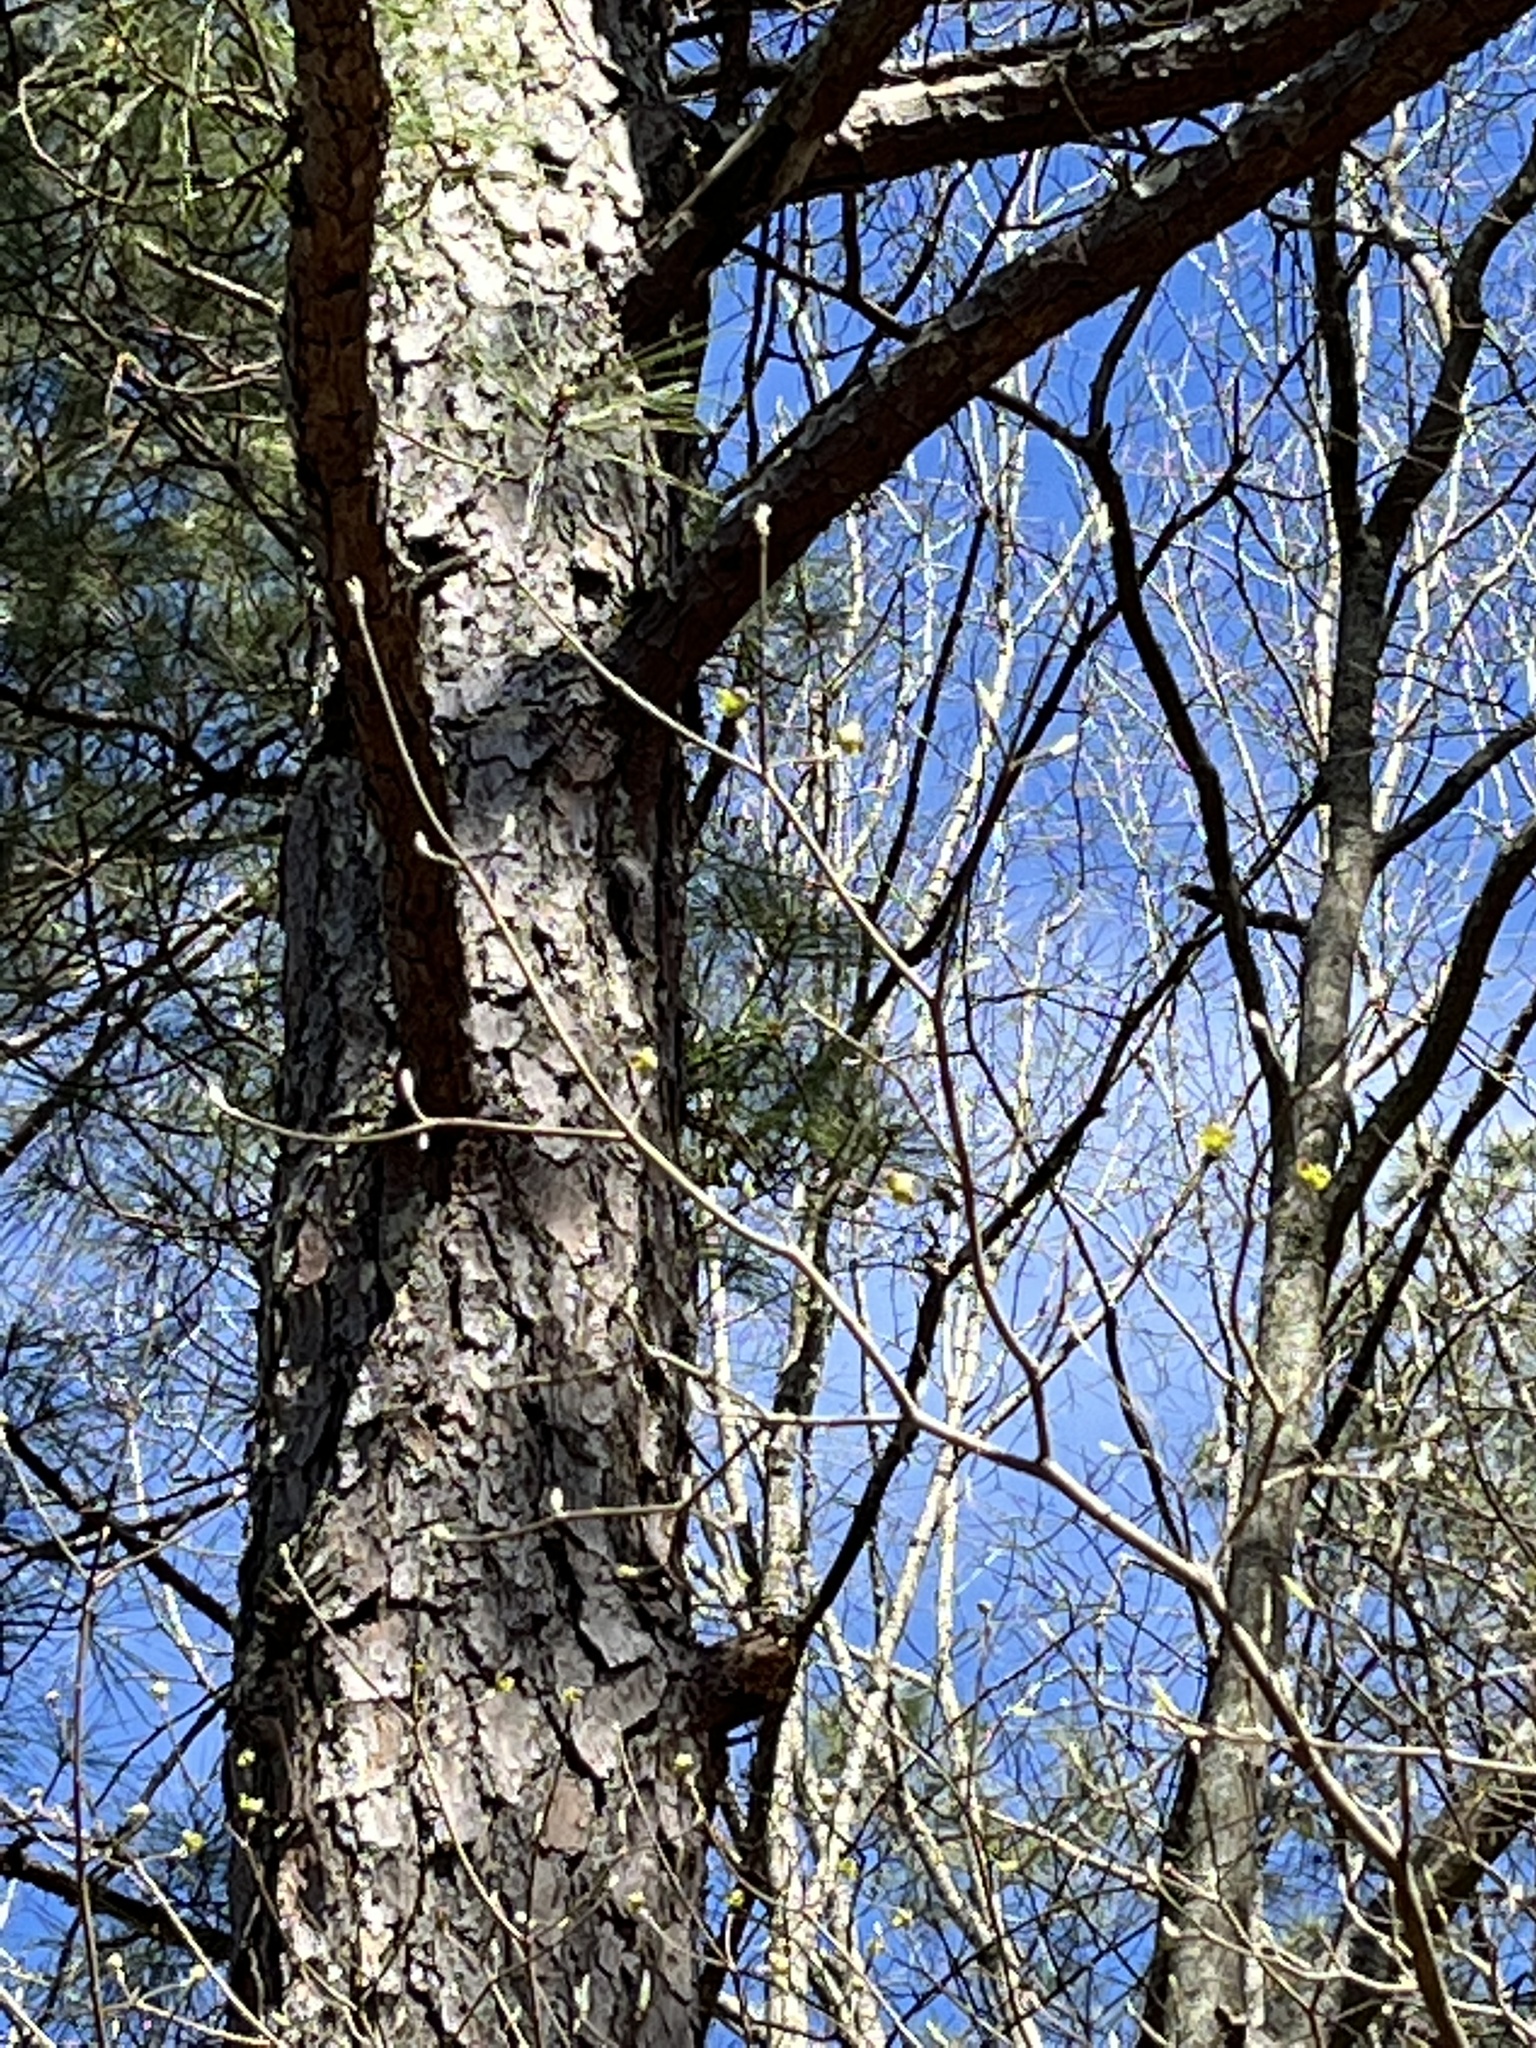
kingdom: Animalia
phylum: Chordata
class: Aves
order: Passeriformes
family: Sittidae
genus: Sitta
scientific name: Sitta pusilla
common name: Brown-headed nuthatch
